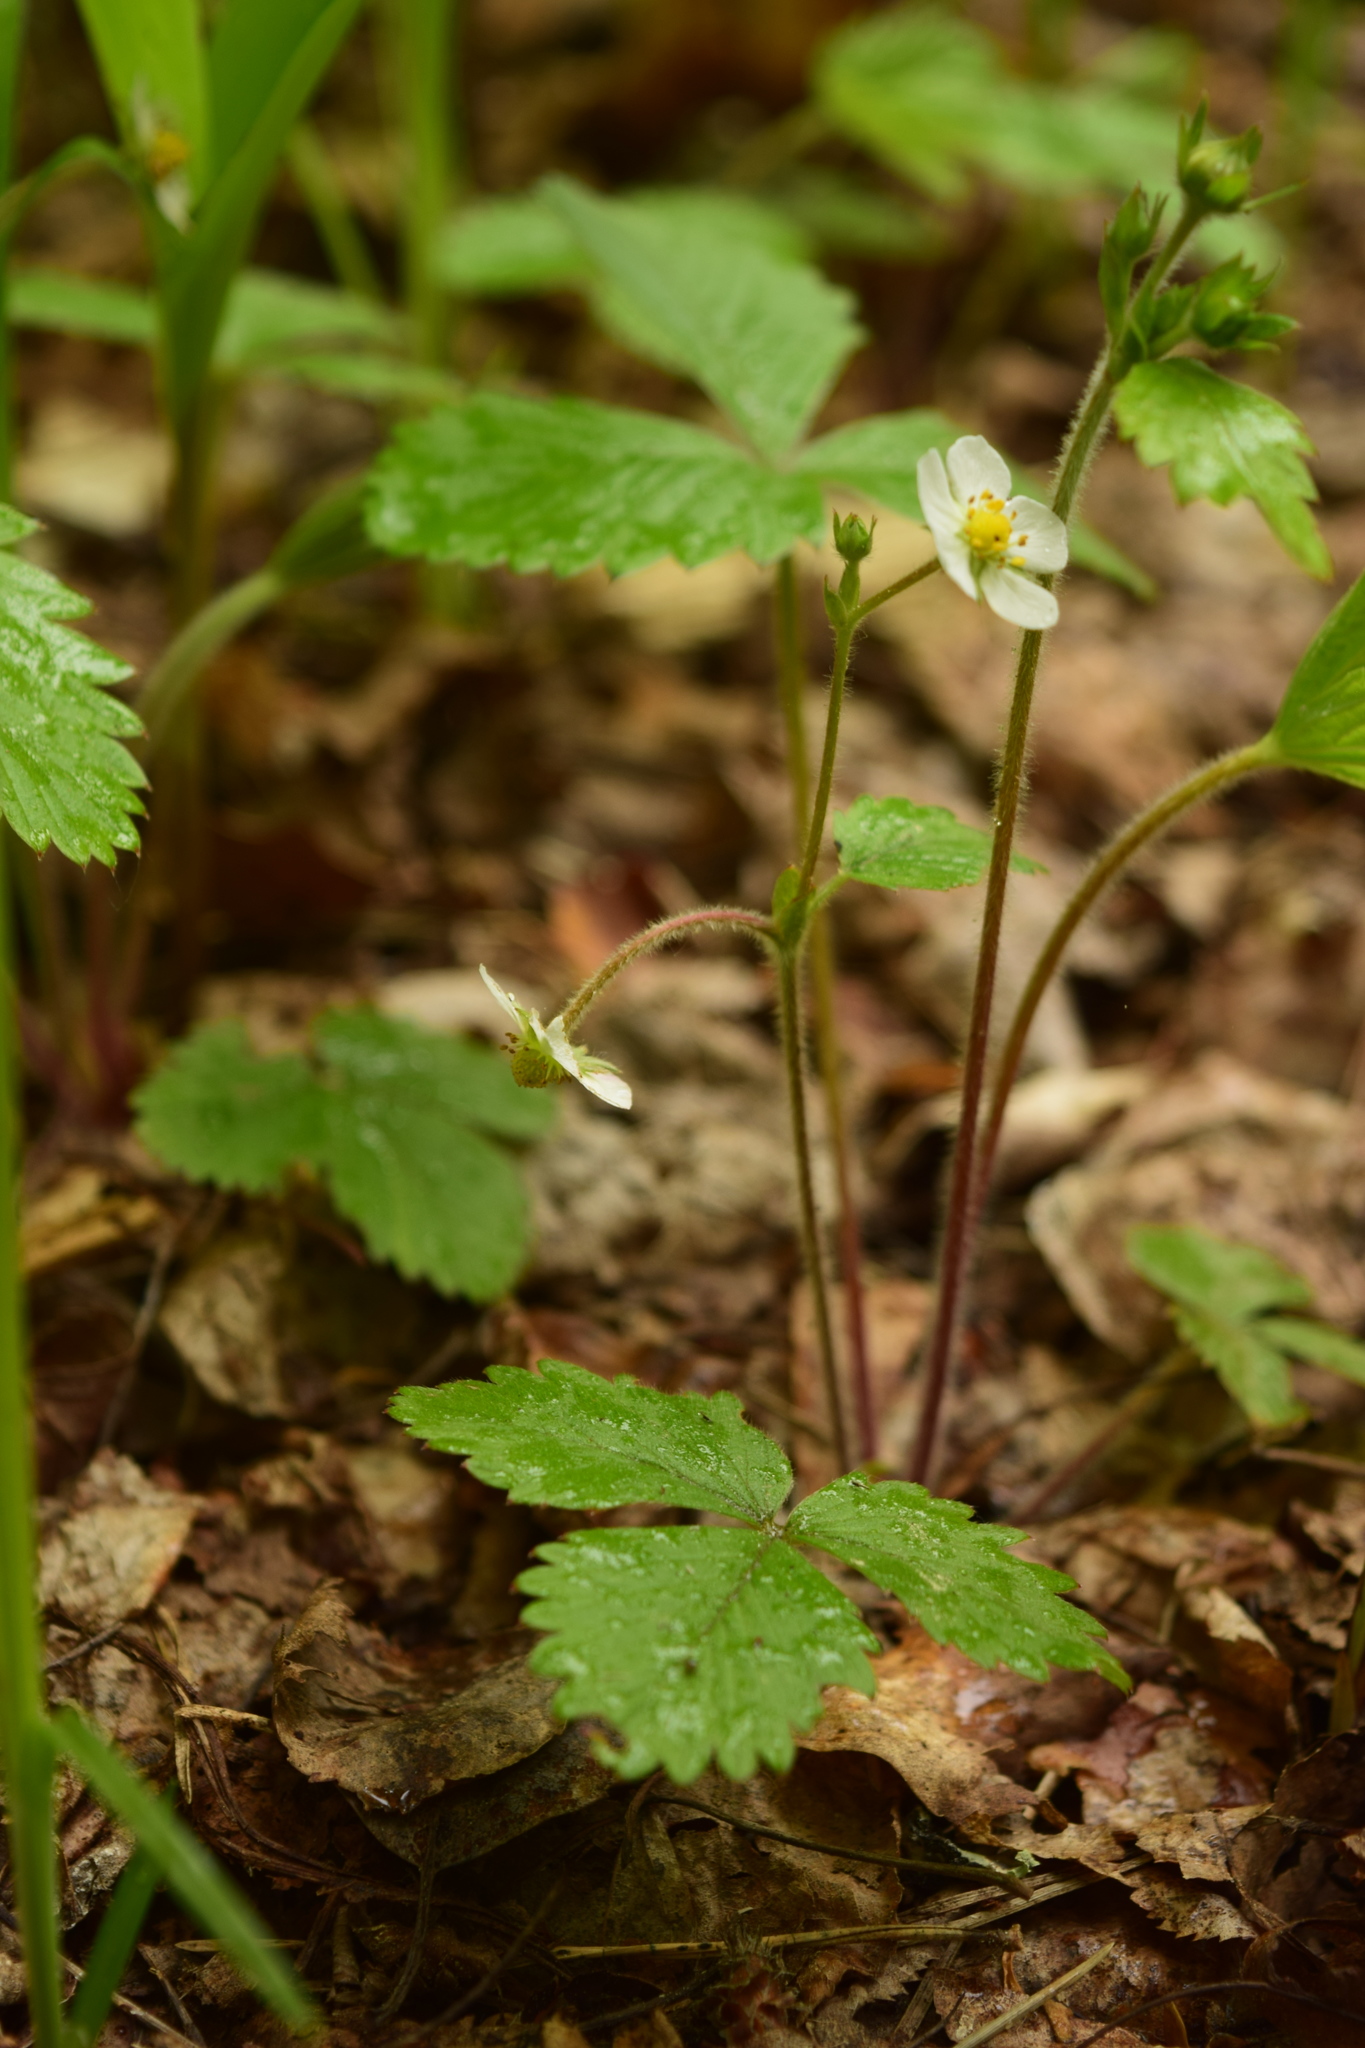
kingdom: Plantae
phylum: Tracheophyta
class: Magnoliopsida
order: Rosales
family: Rosaceae
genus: Fragaria
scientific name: Fragaria vesca
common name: Wild strawberry
